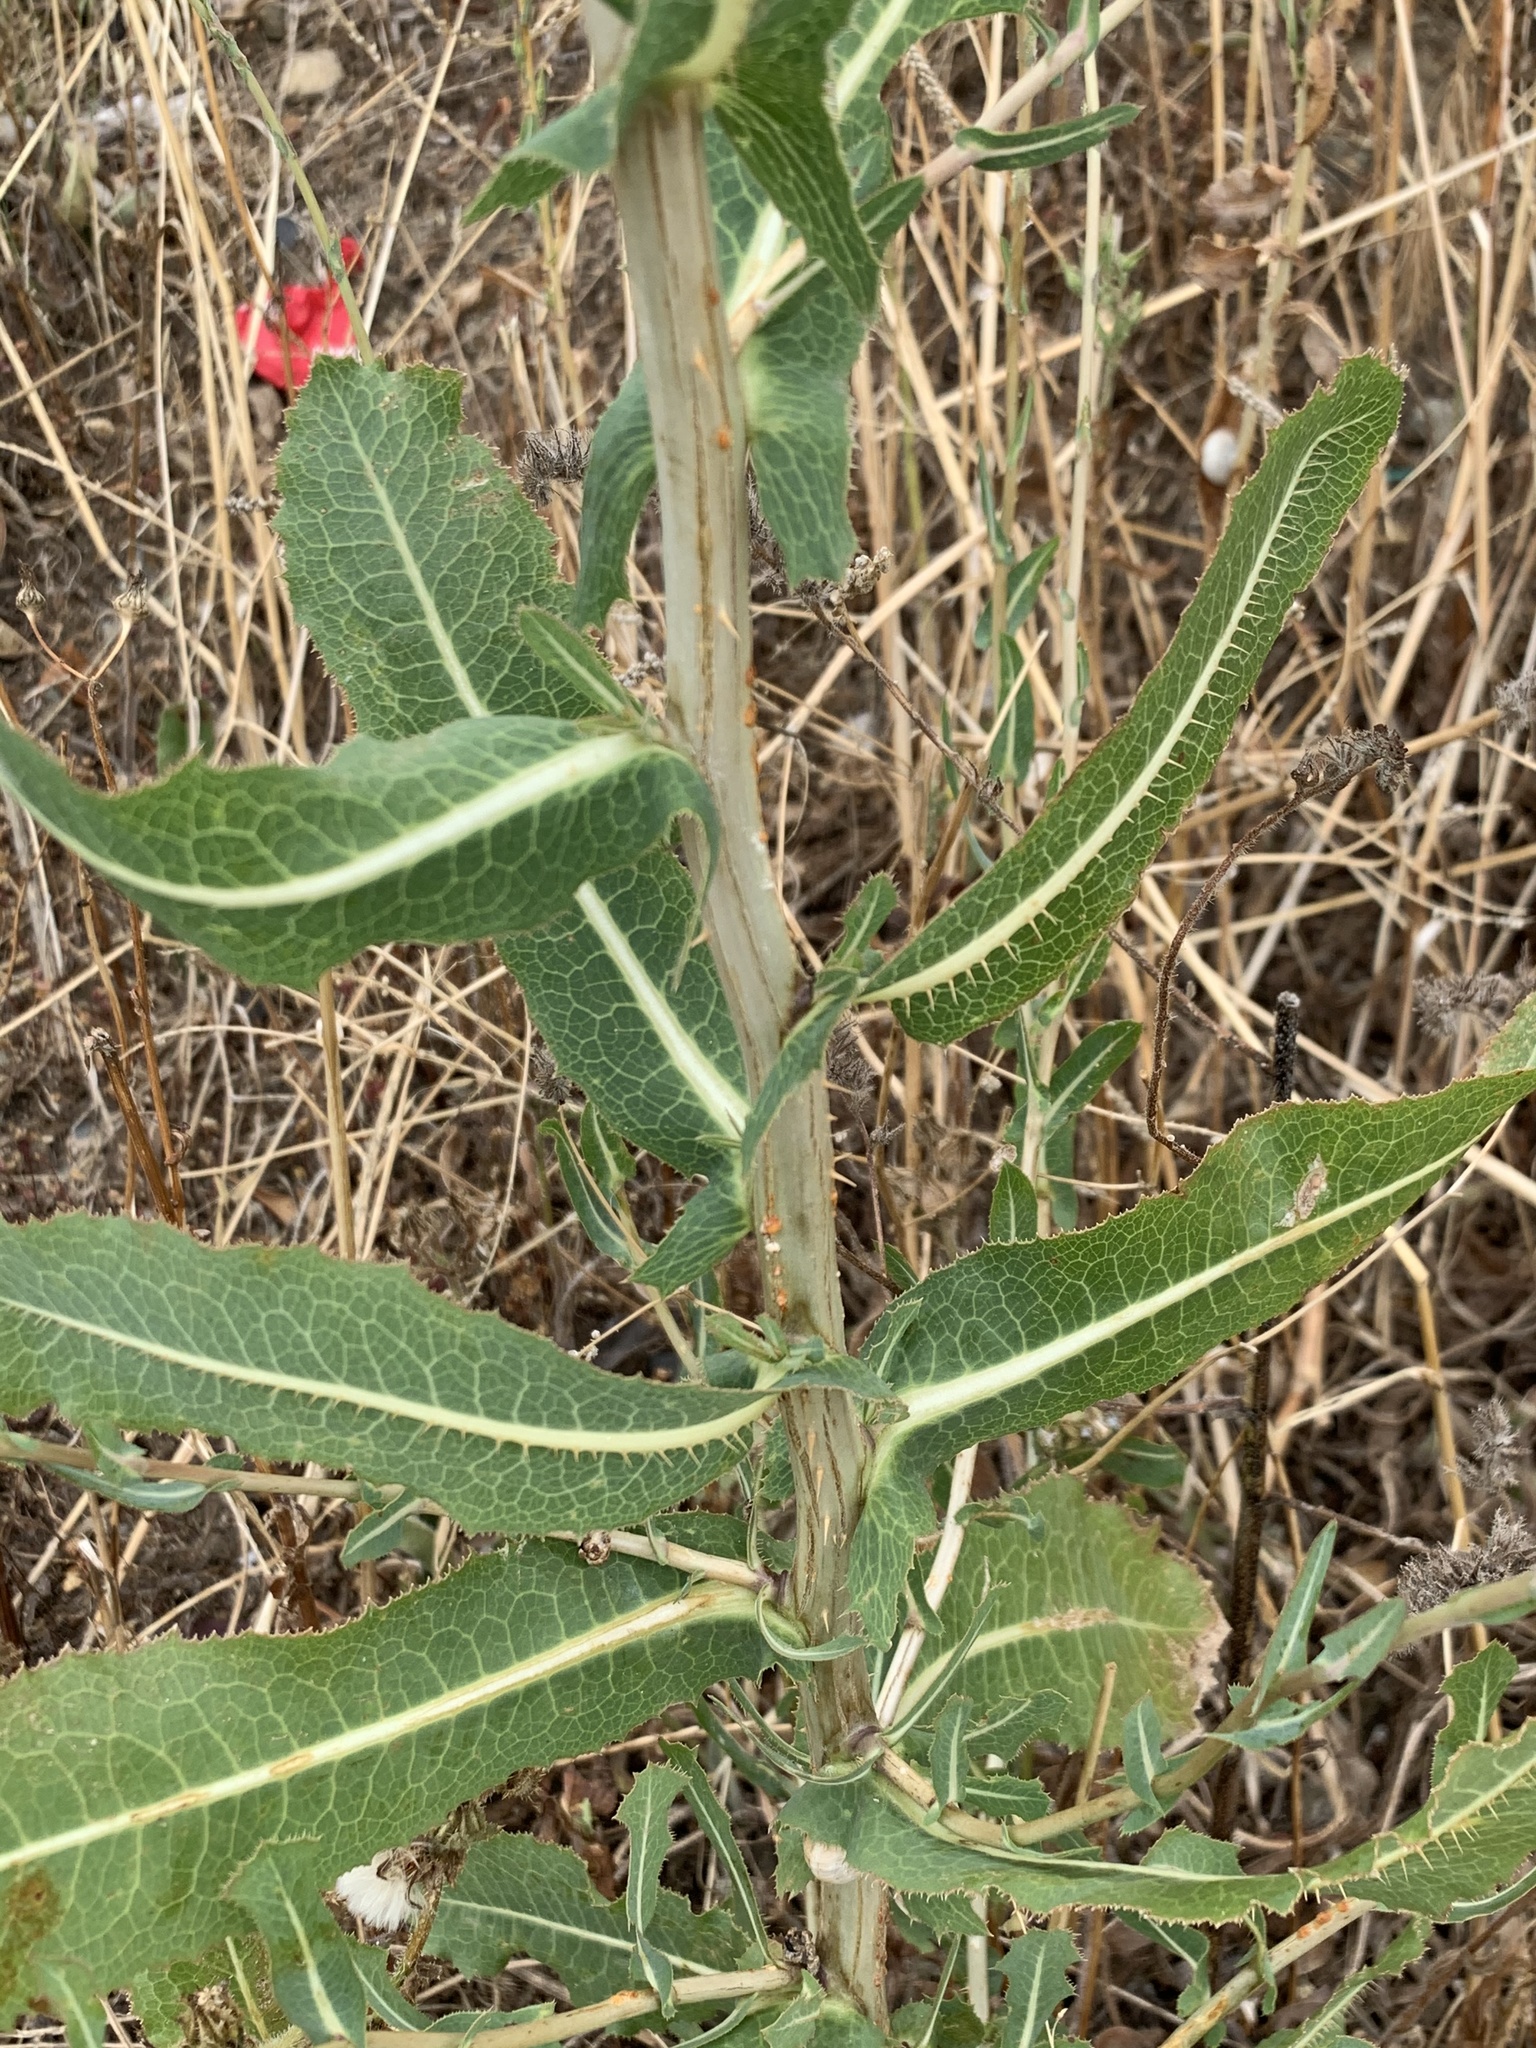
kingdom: Plantae
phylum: Tracheophyta
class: Magnoliopsida
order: Asterales
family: Asteraceae
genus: Lactuca
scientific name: Lactuca serriola
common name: Prickly lettuce
